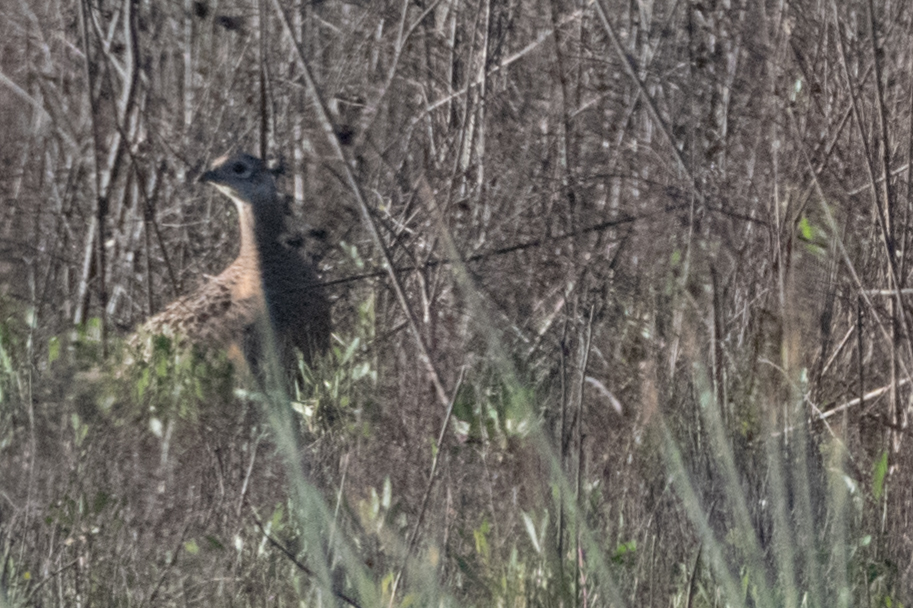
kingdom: Animalia
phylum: Chordata
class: Aves
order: Galliformes
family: Phasianidae
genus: Phasianus
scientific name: Phasianus colchicus
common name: Common pheasant
